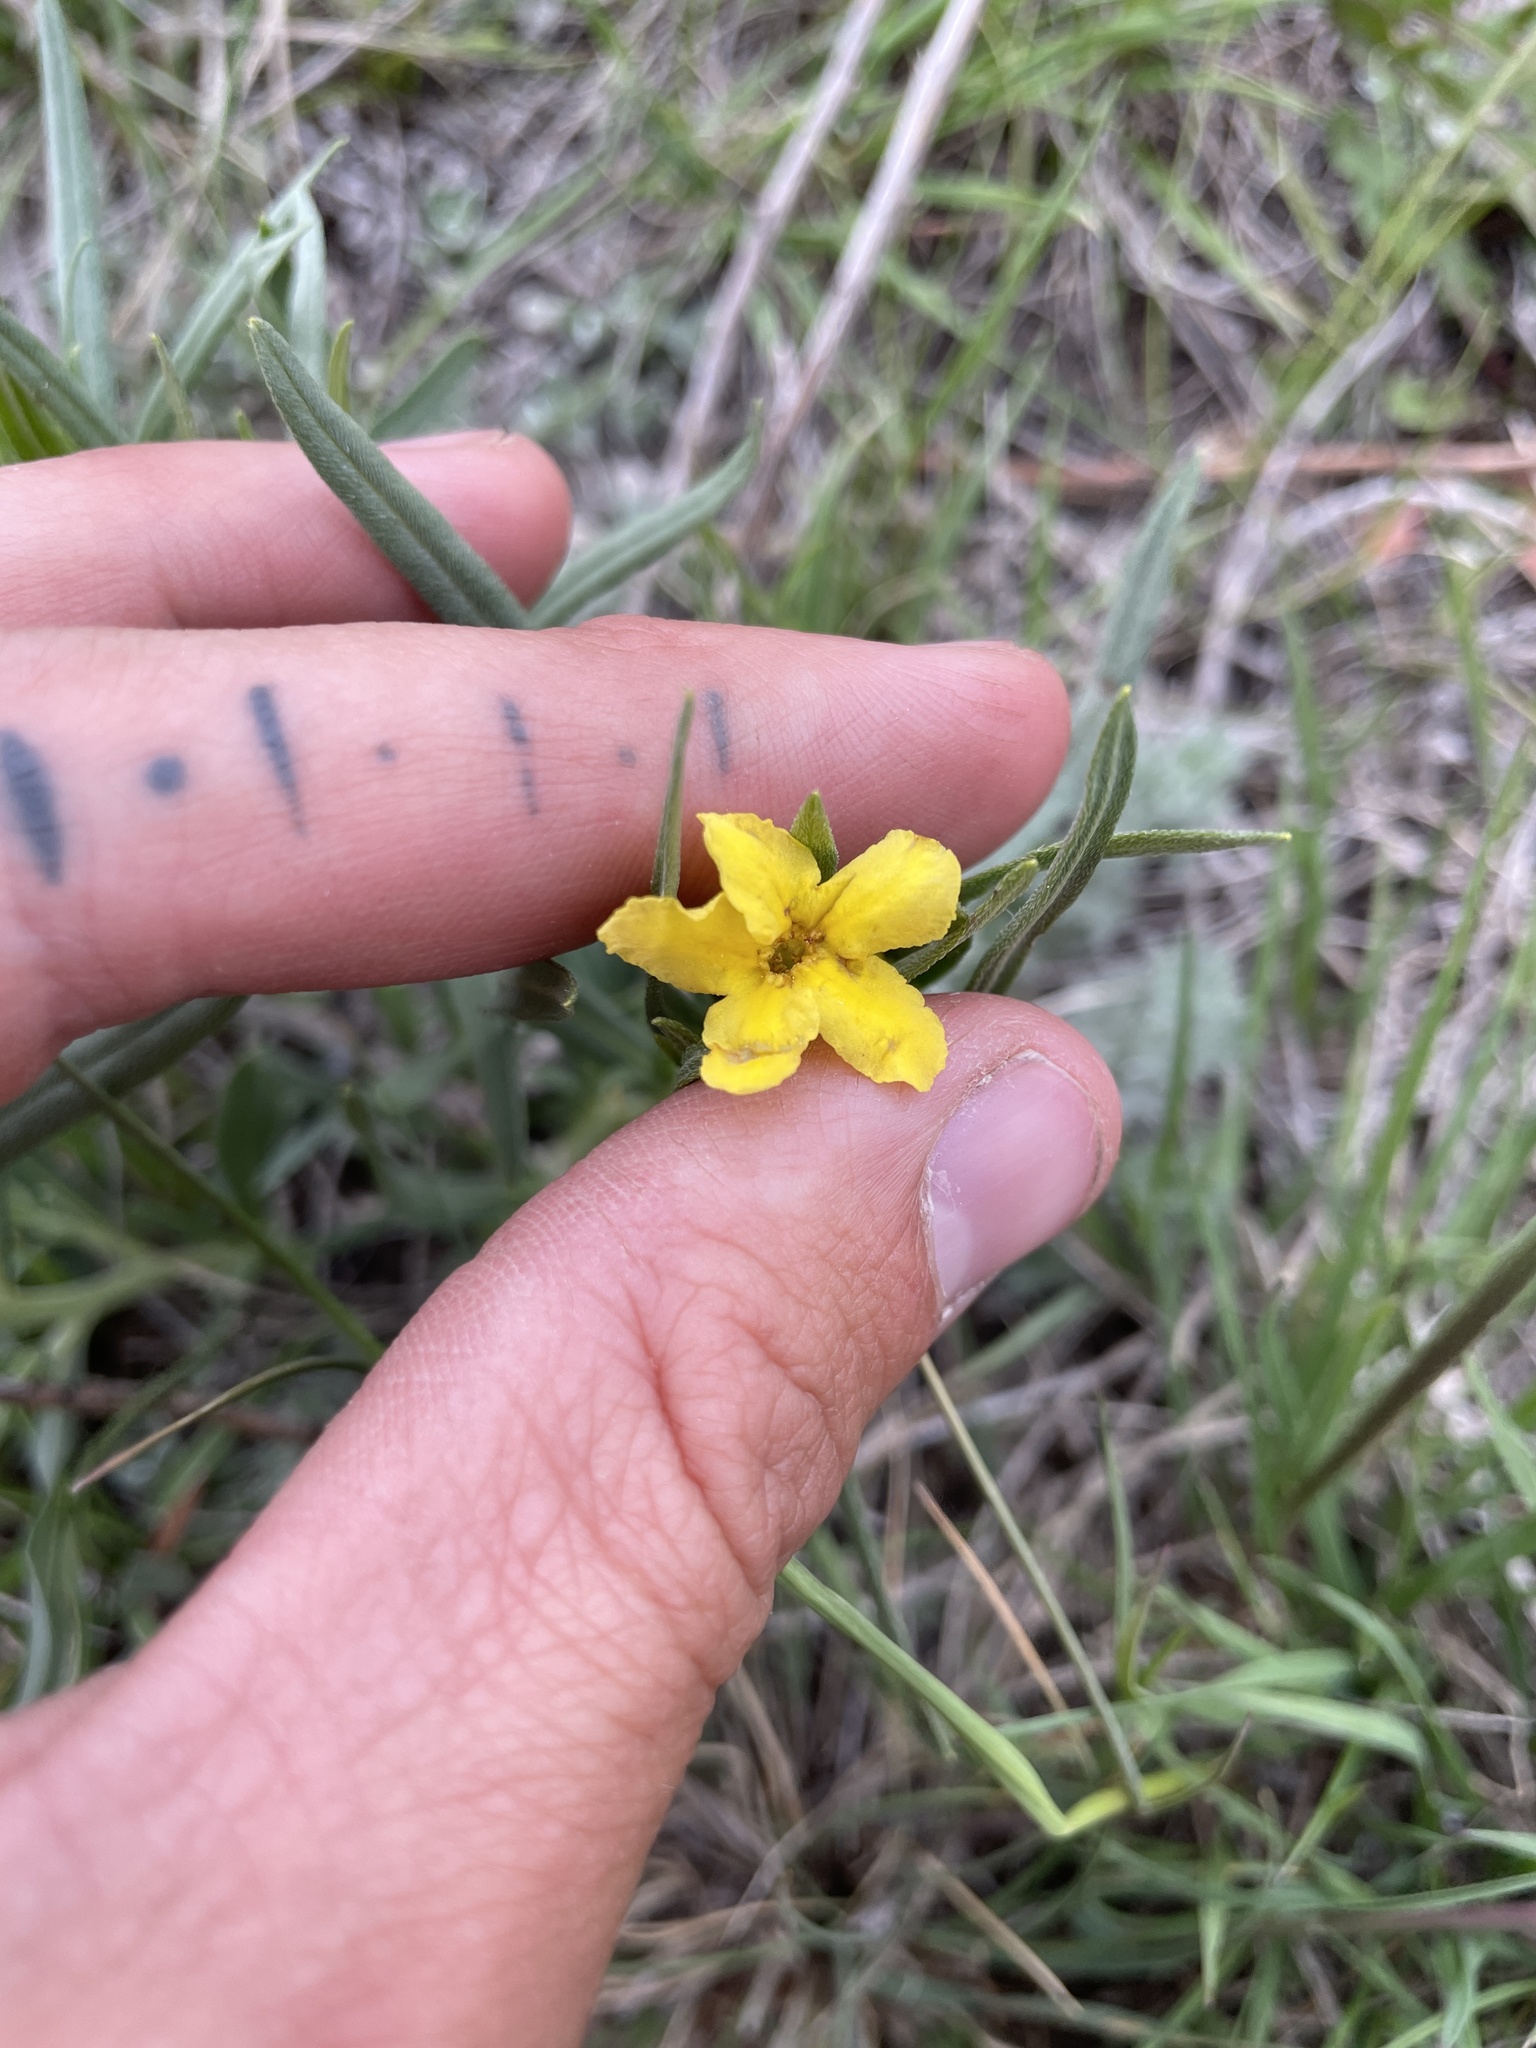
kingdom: Plantae
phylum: Tracheophyta
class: Magnoliopsida
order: Boraginales
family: Boraginaceae
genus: Lithospermum
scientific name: Lithospermum incisum
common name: Fringed gromwell
